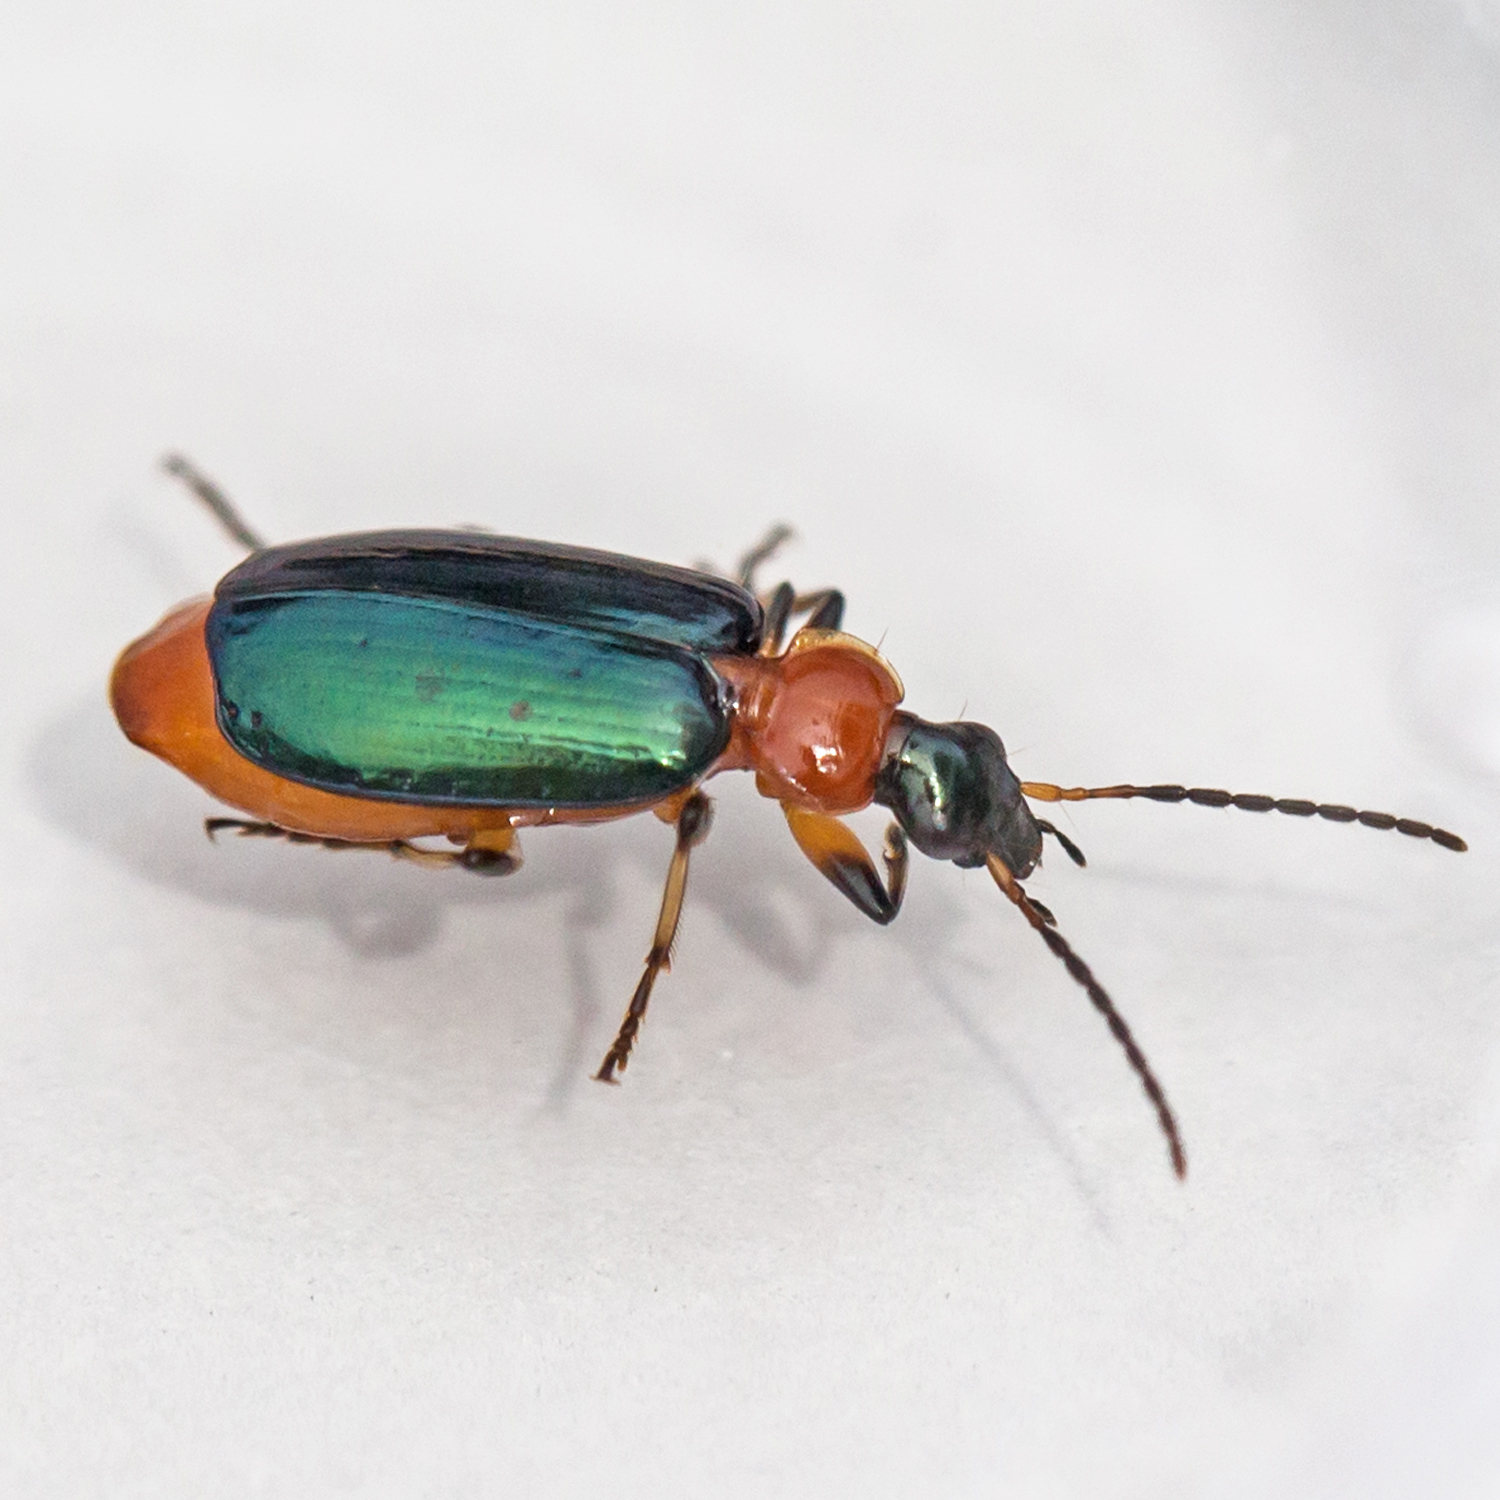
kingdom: Animalia
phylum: Arthropoda
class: Insecta
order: Coleoptera
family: Carabidae
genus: Lebia
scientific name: Lebia viridipennis
